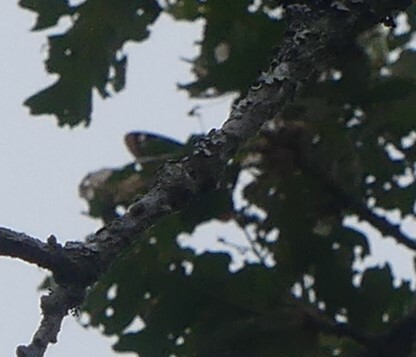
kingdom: Animalia
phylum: Arthropoda
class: Insecta
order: Lepidoptera
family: Nymphalidae
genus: Limenitis
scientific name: Limenitis lorquini
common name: Lorquin's admiral
